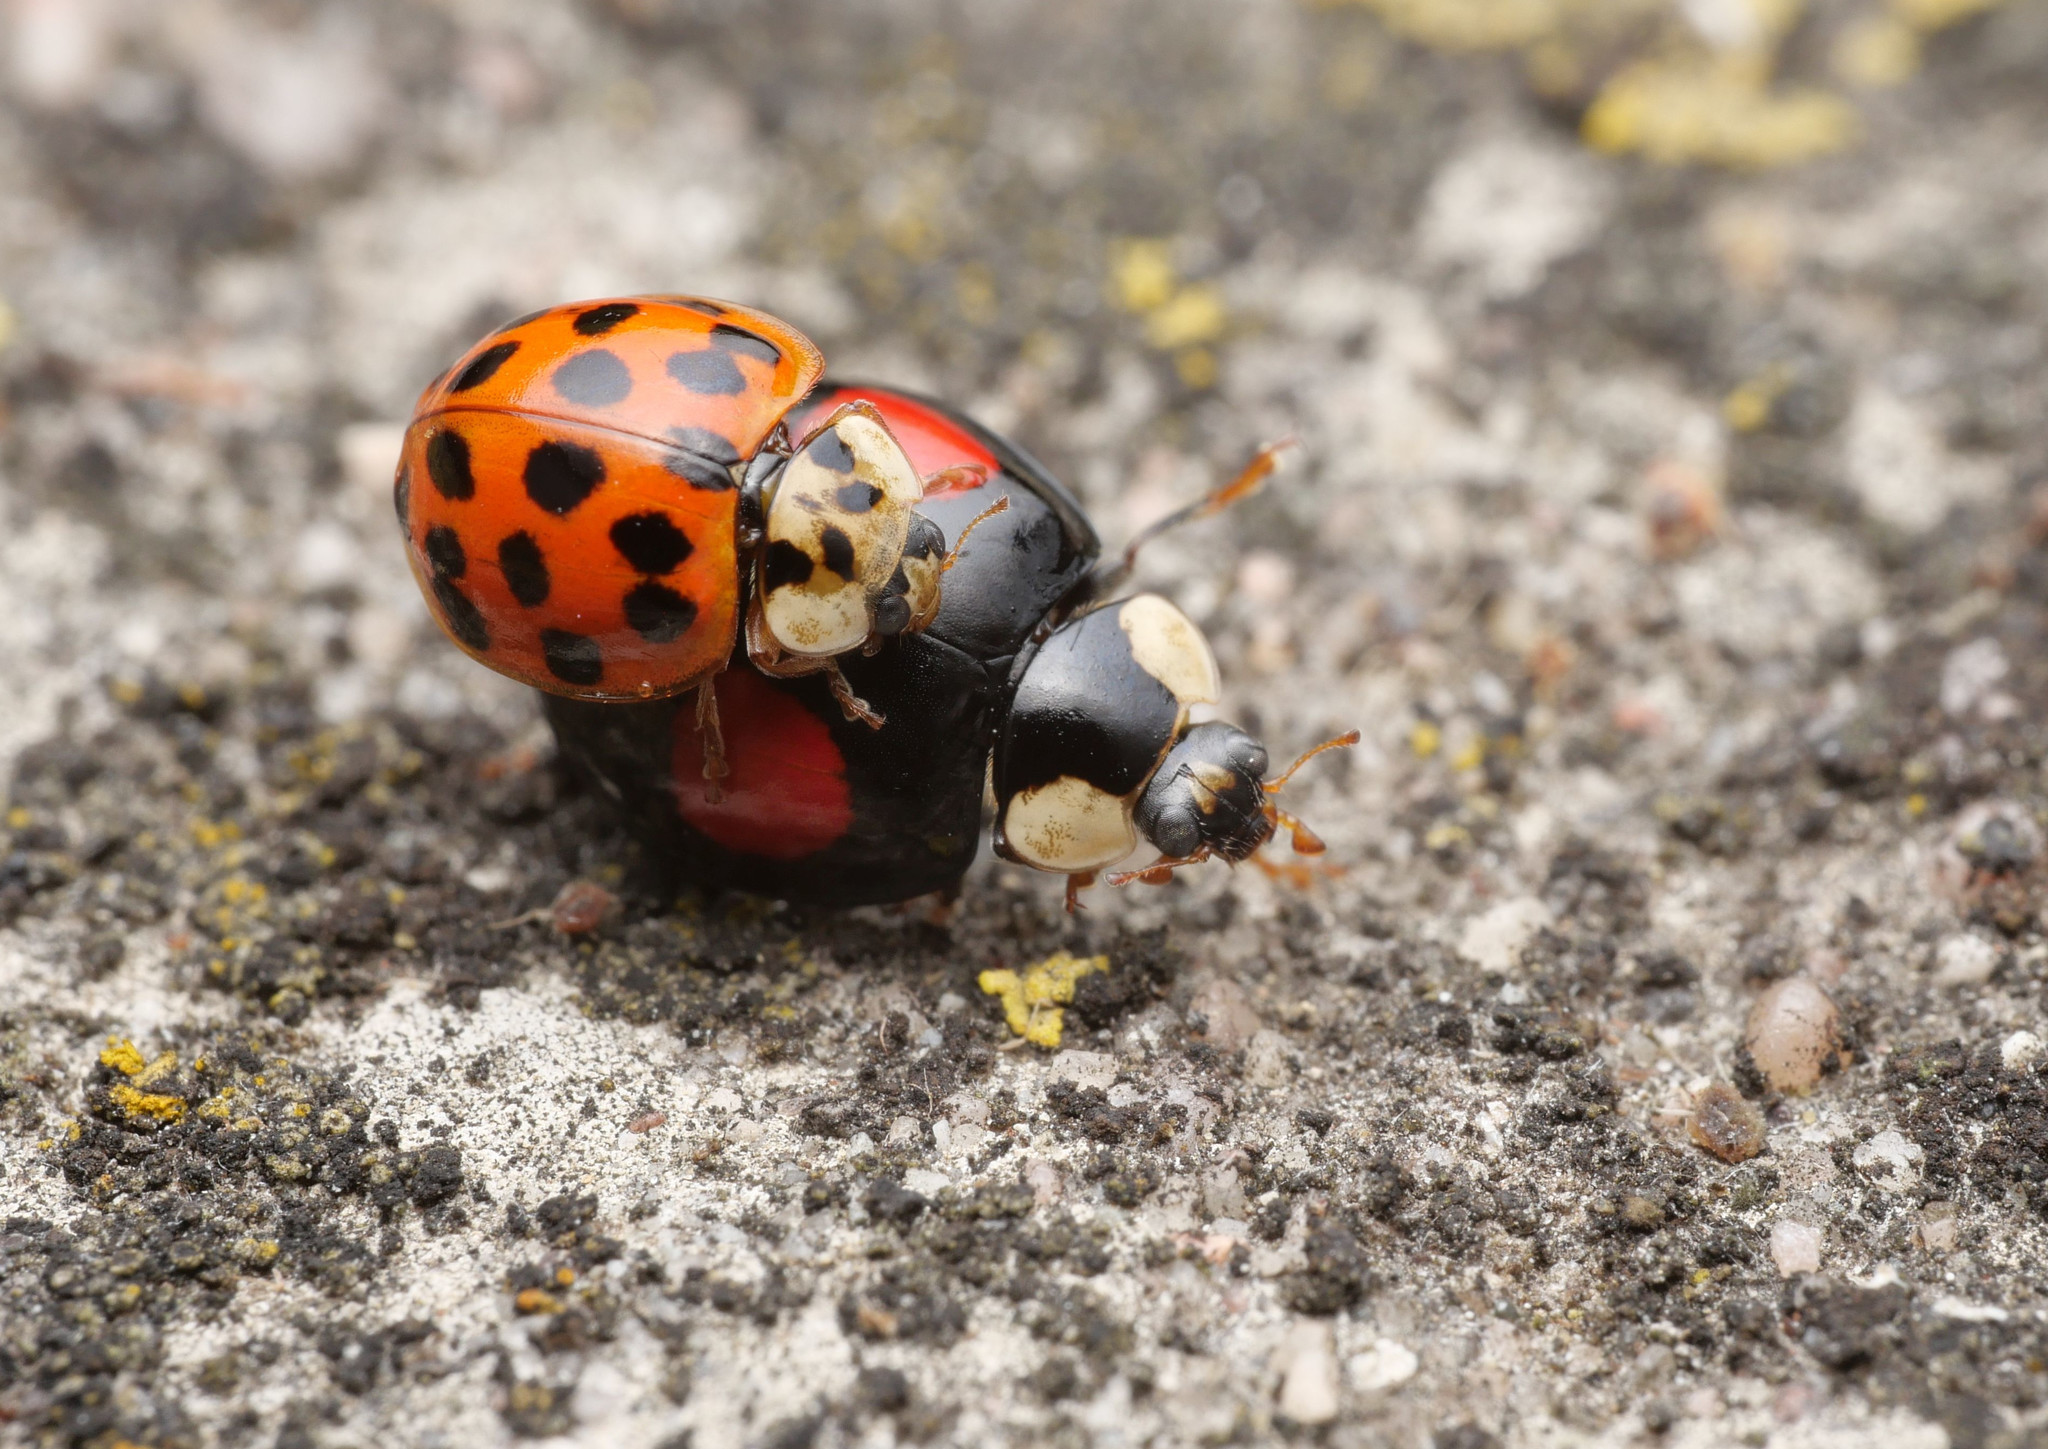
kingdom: Animalia
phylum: Arthropoda
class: Insecta
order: Coleoptera
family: Coccinellidae
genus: Harmonia
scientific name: Harmonia axyridis
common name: Harlequin ladybird
